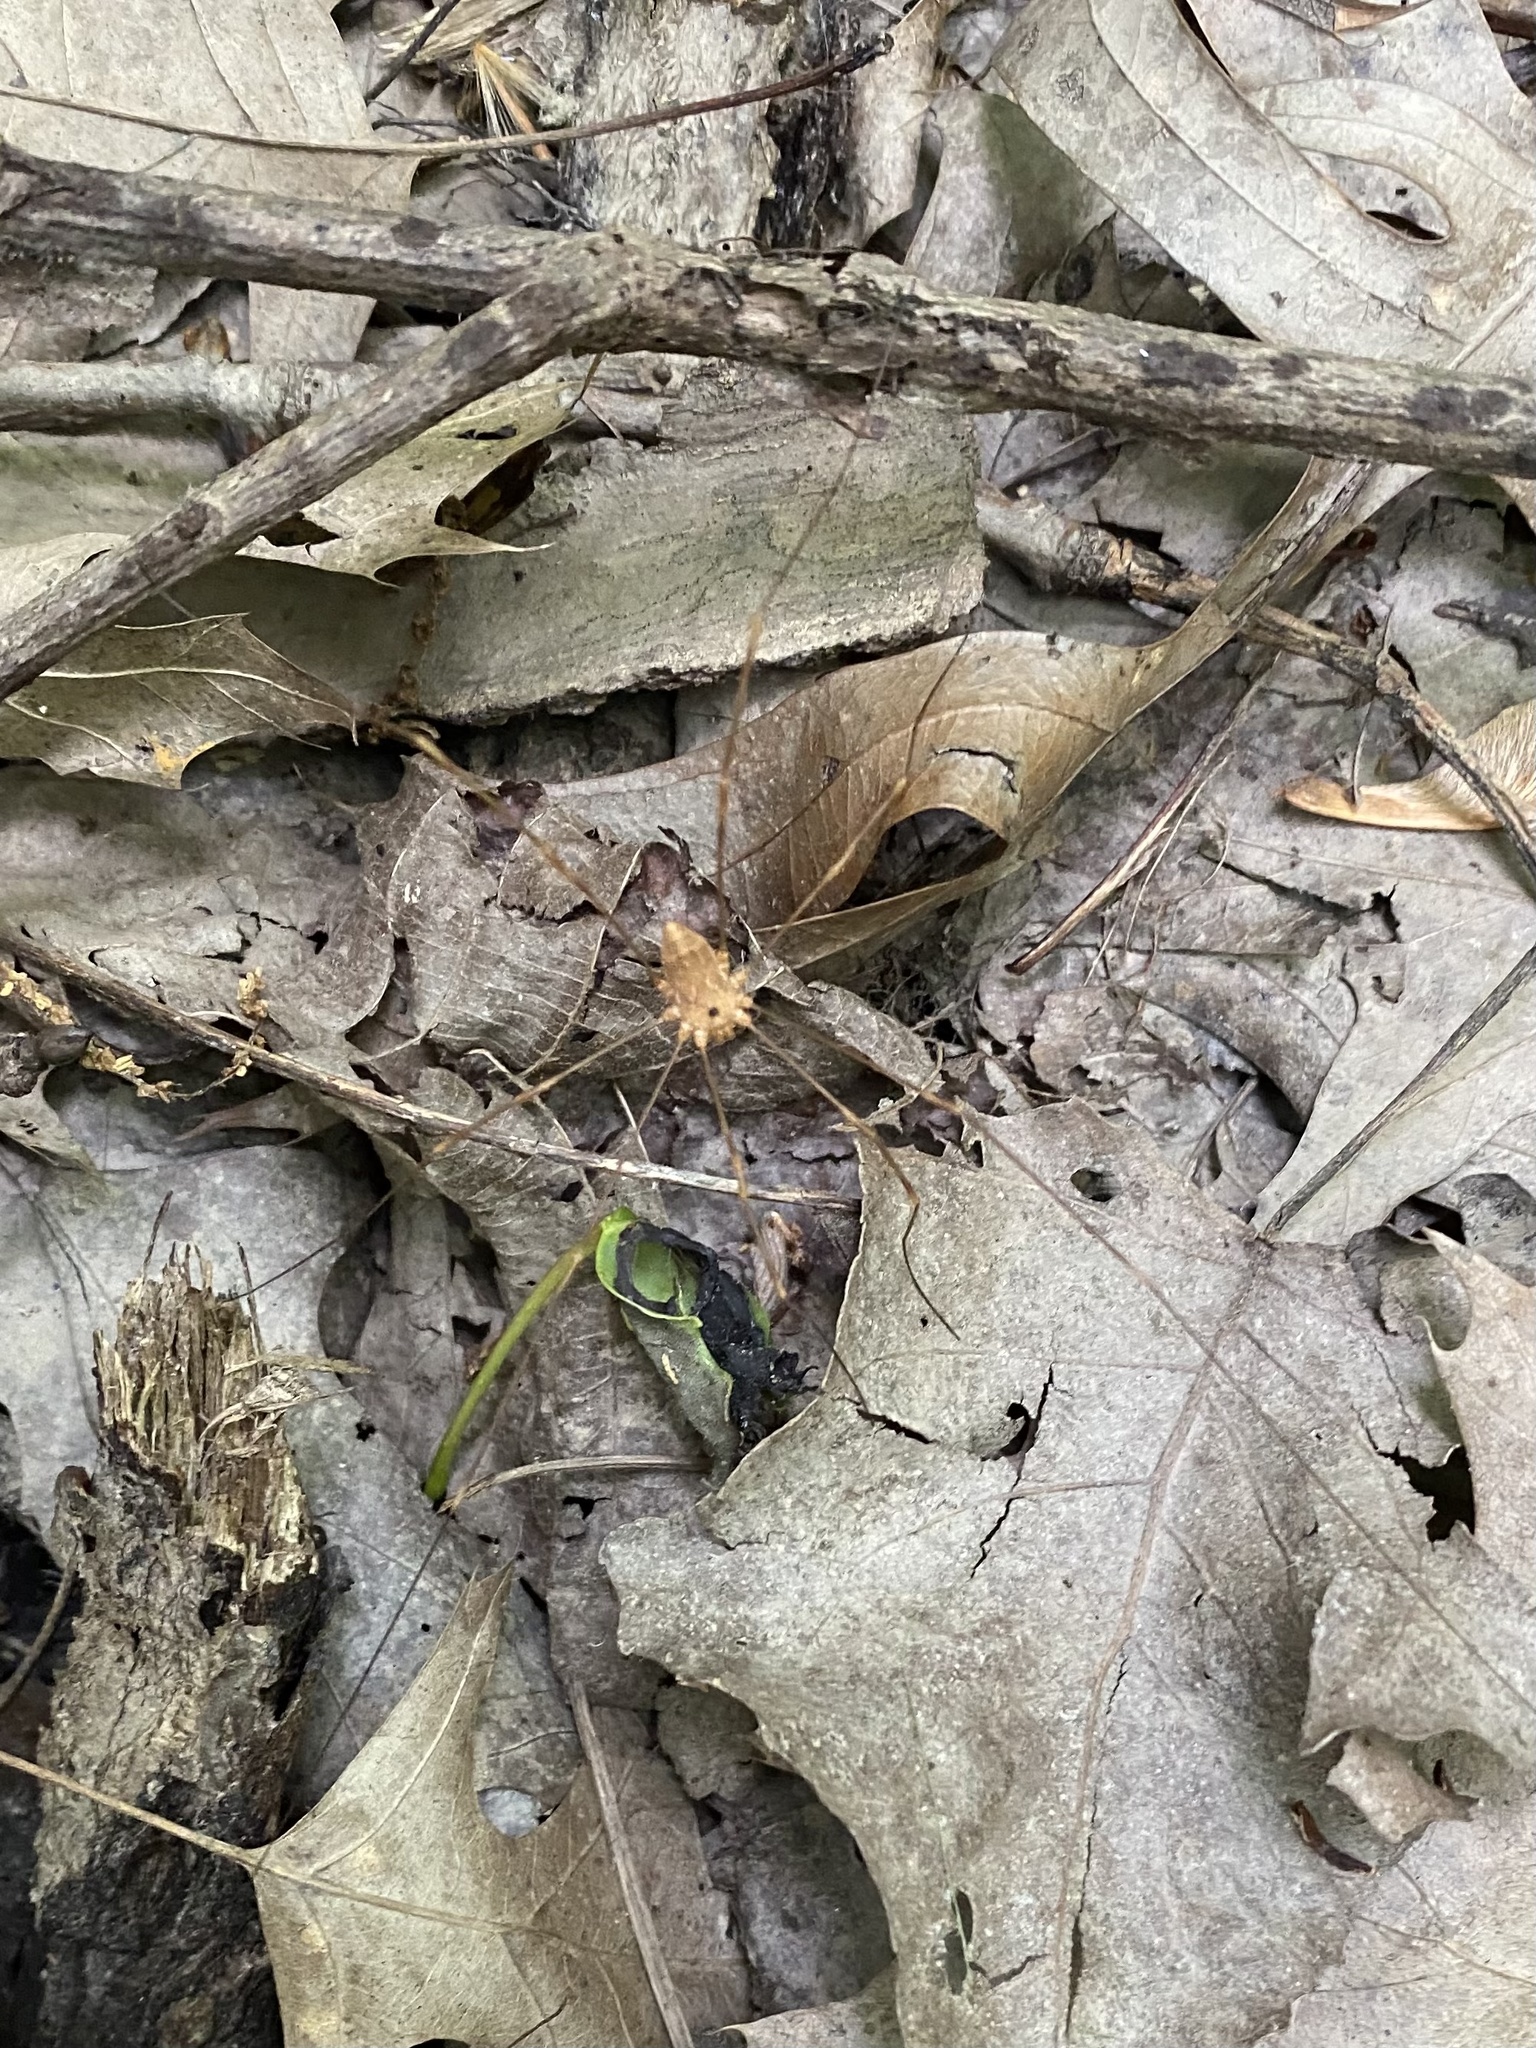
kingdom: Animalia
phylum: Arthropoda
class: Arachnida
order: Opiliones
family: Sclerosomatidae
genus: Leiobunum
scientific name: Leiobunum ventricosum
